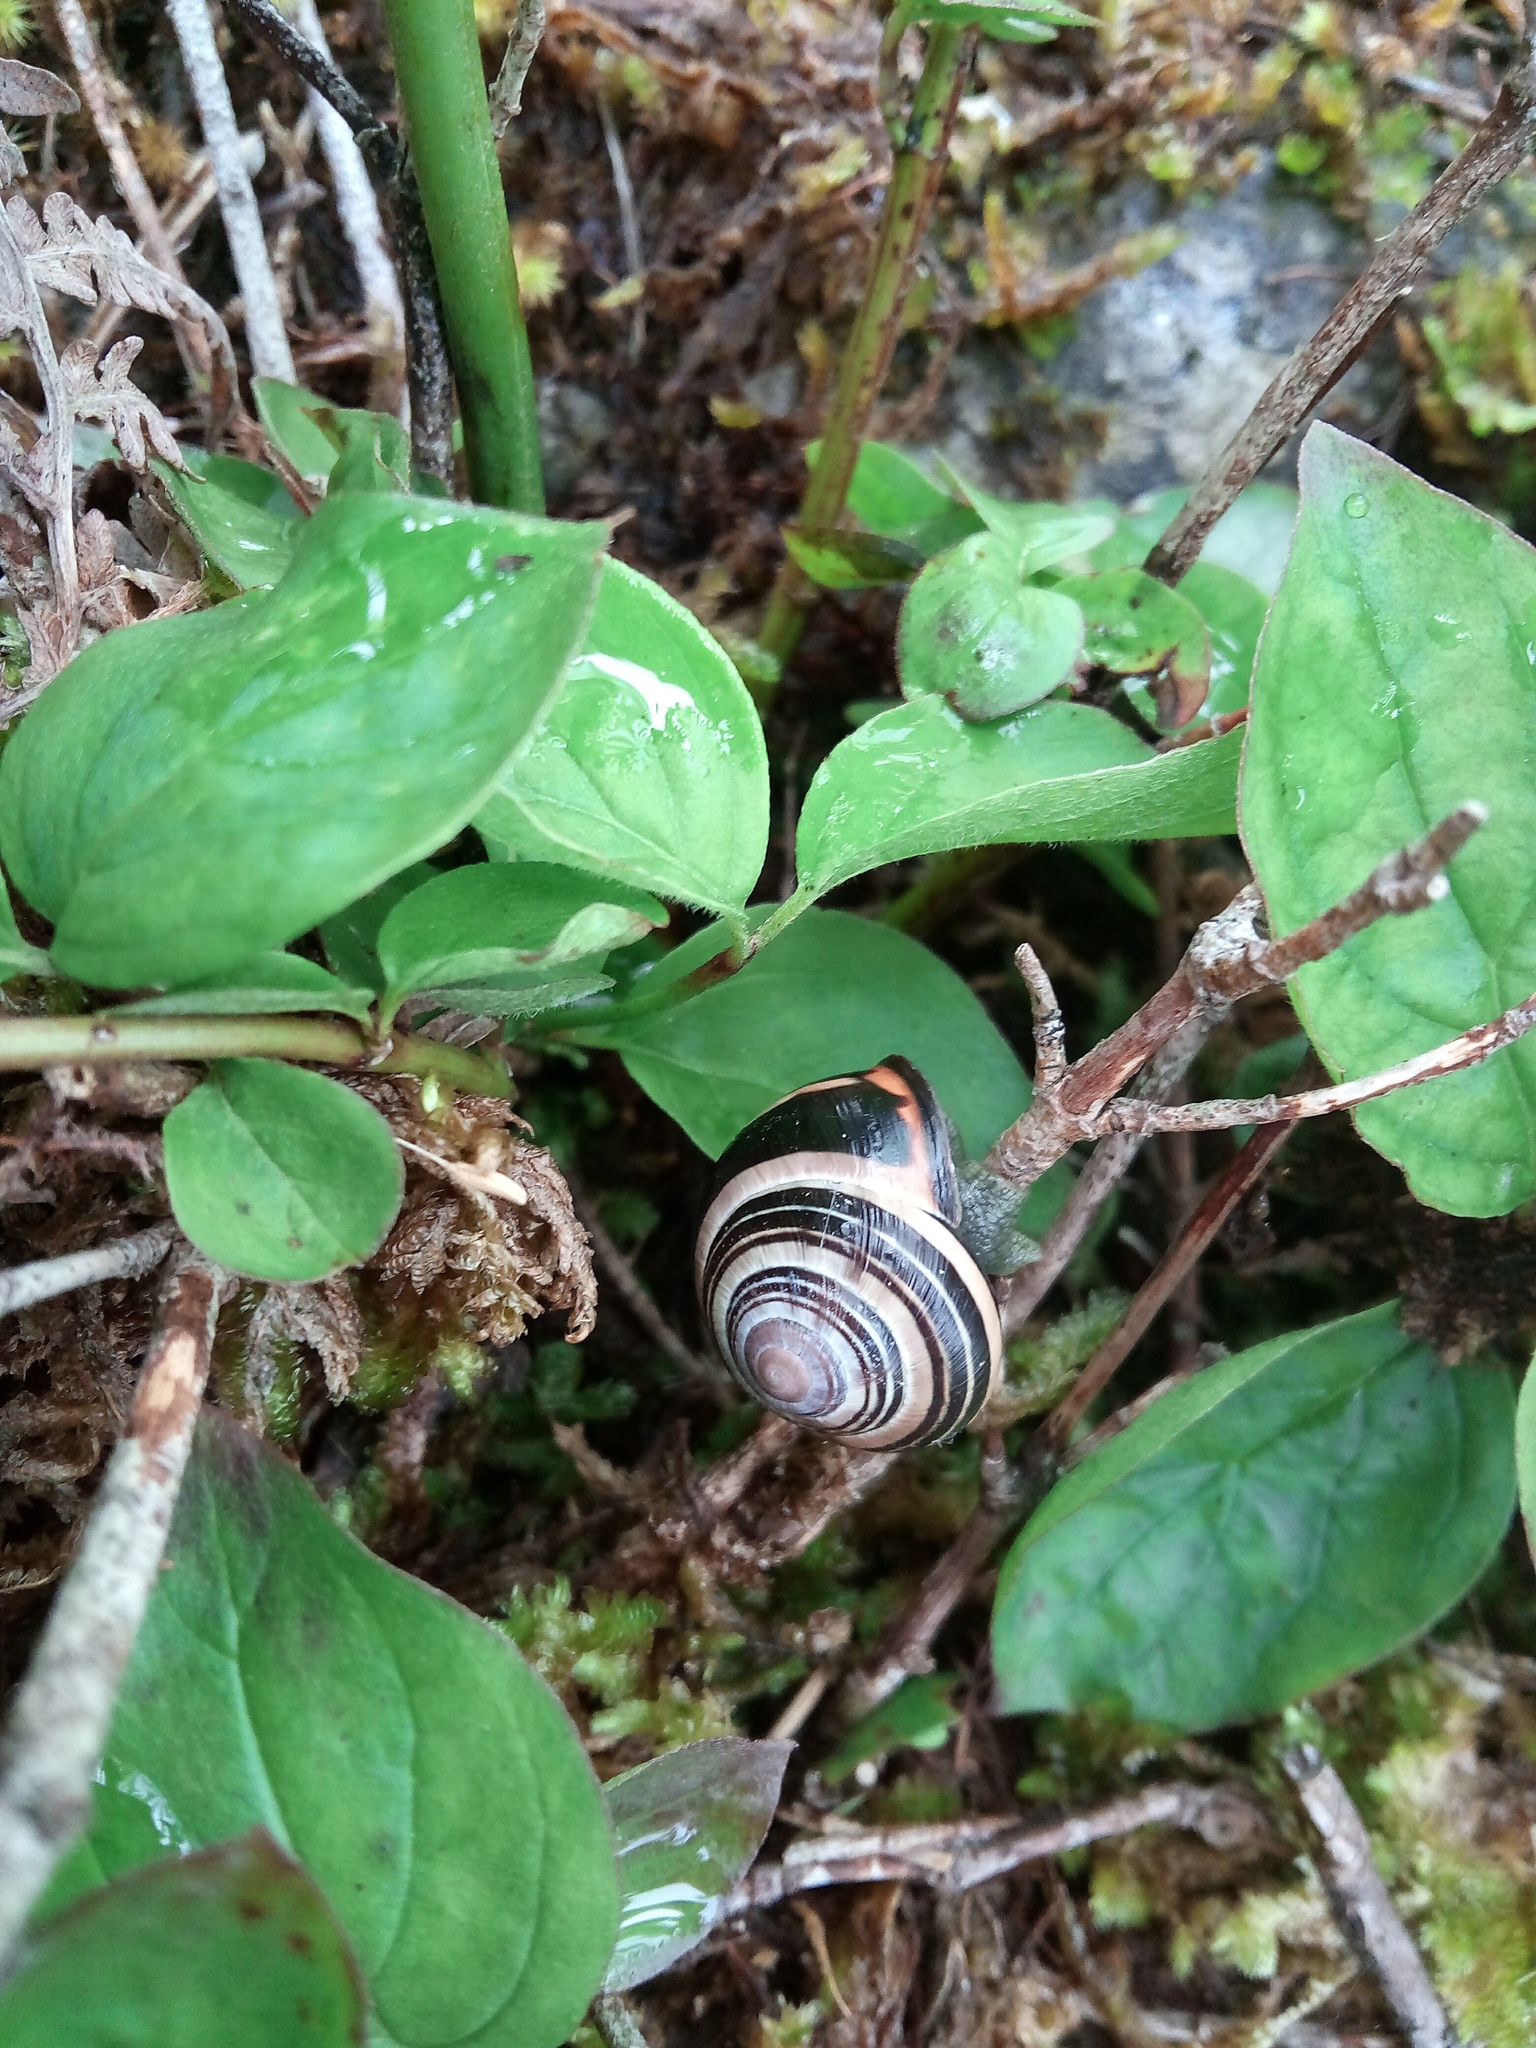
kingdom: Animalia
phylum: Mollusca
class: Gastropoda
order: Stylommatophora
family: Helicidae
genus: Cepaea
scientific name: Cepaea nemoralis
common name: Grovesnail
